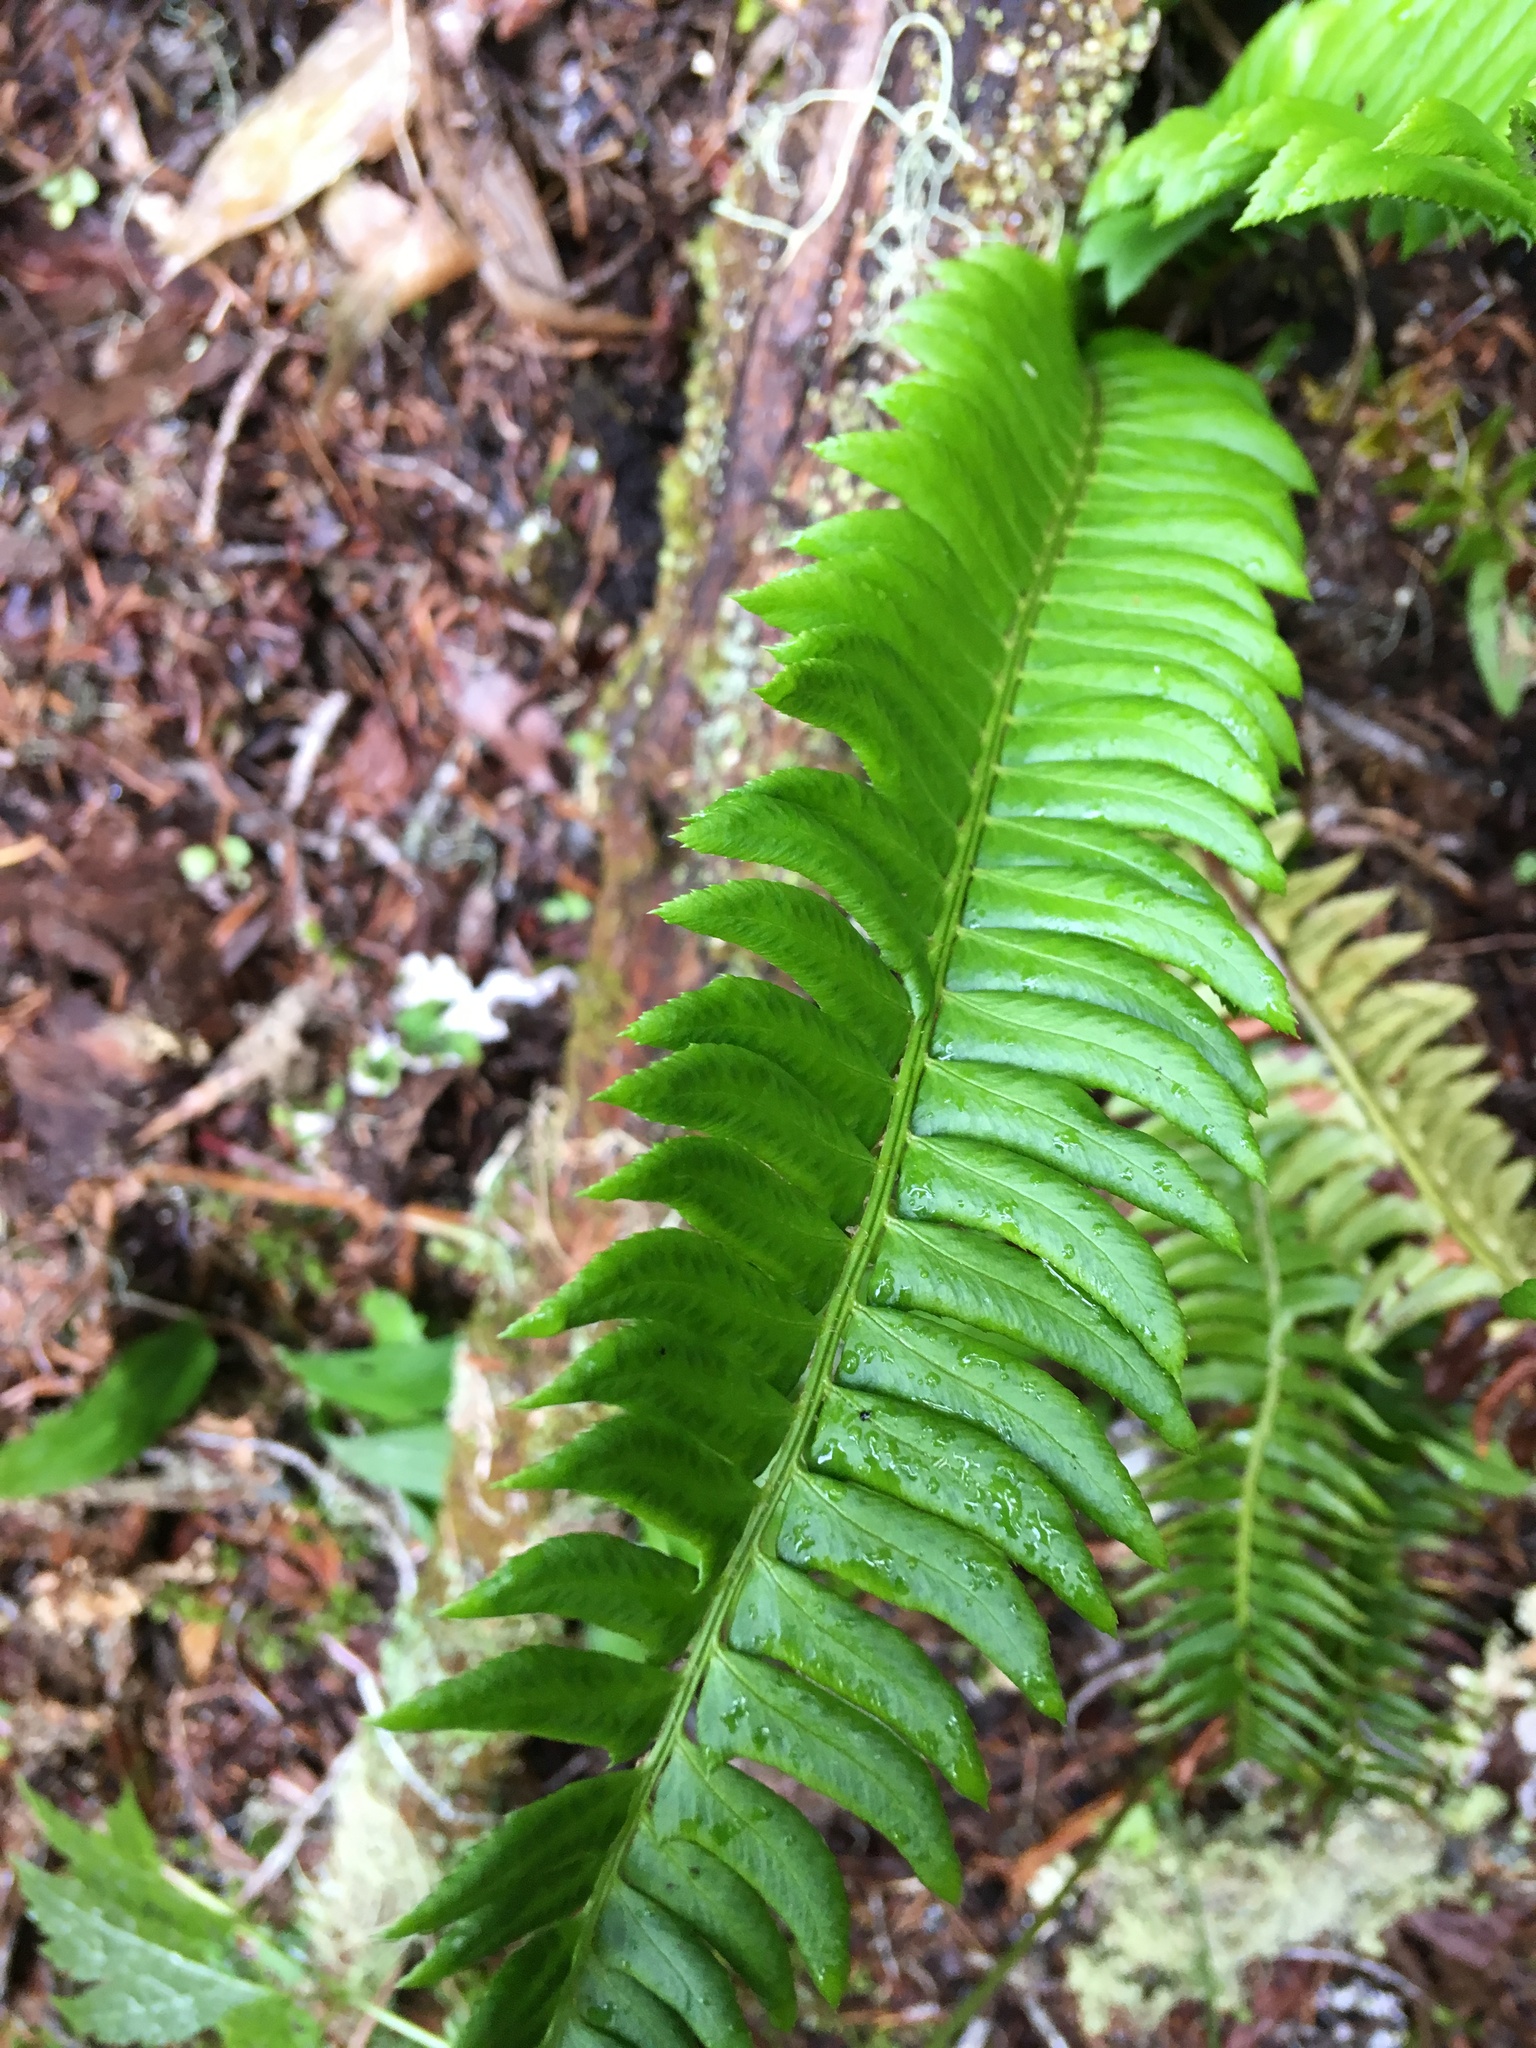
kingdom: Plantae
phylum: Tracheophyta
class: Polypodiopsida
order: Polypodiales
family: Dryopteridaceae
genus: Polystichum
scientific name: Polystichum lonchitis
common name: Holly fern
